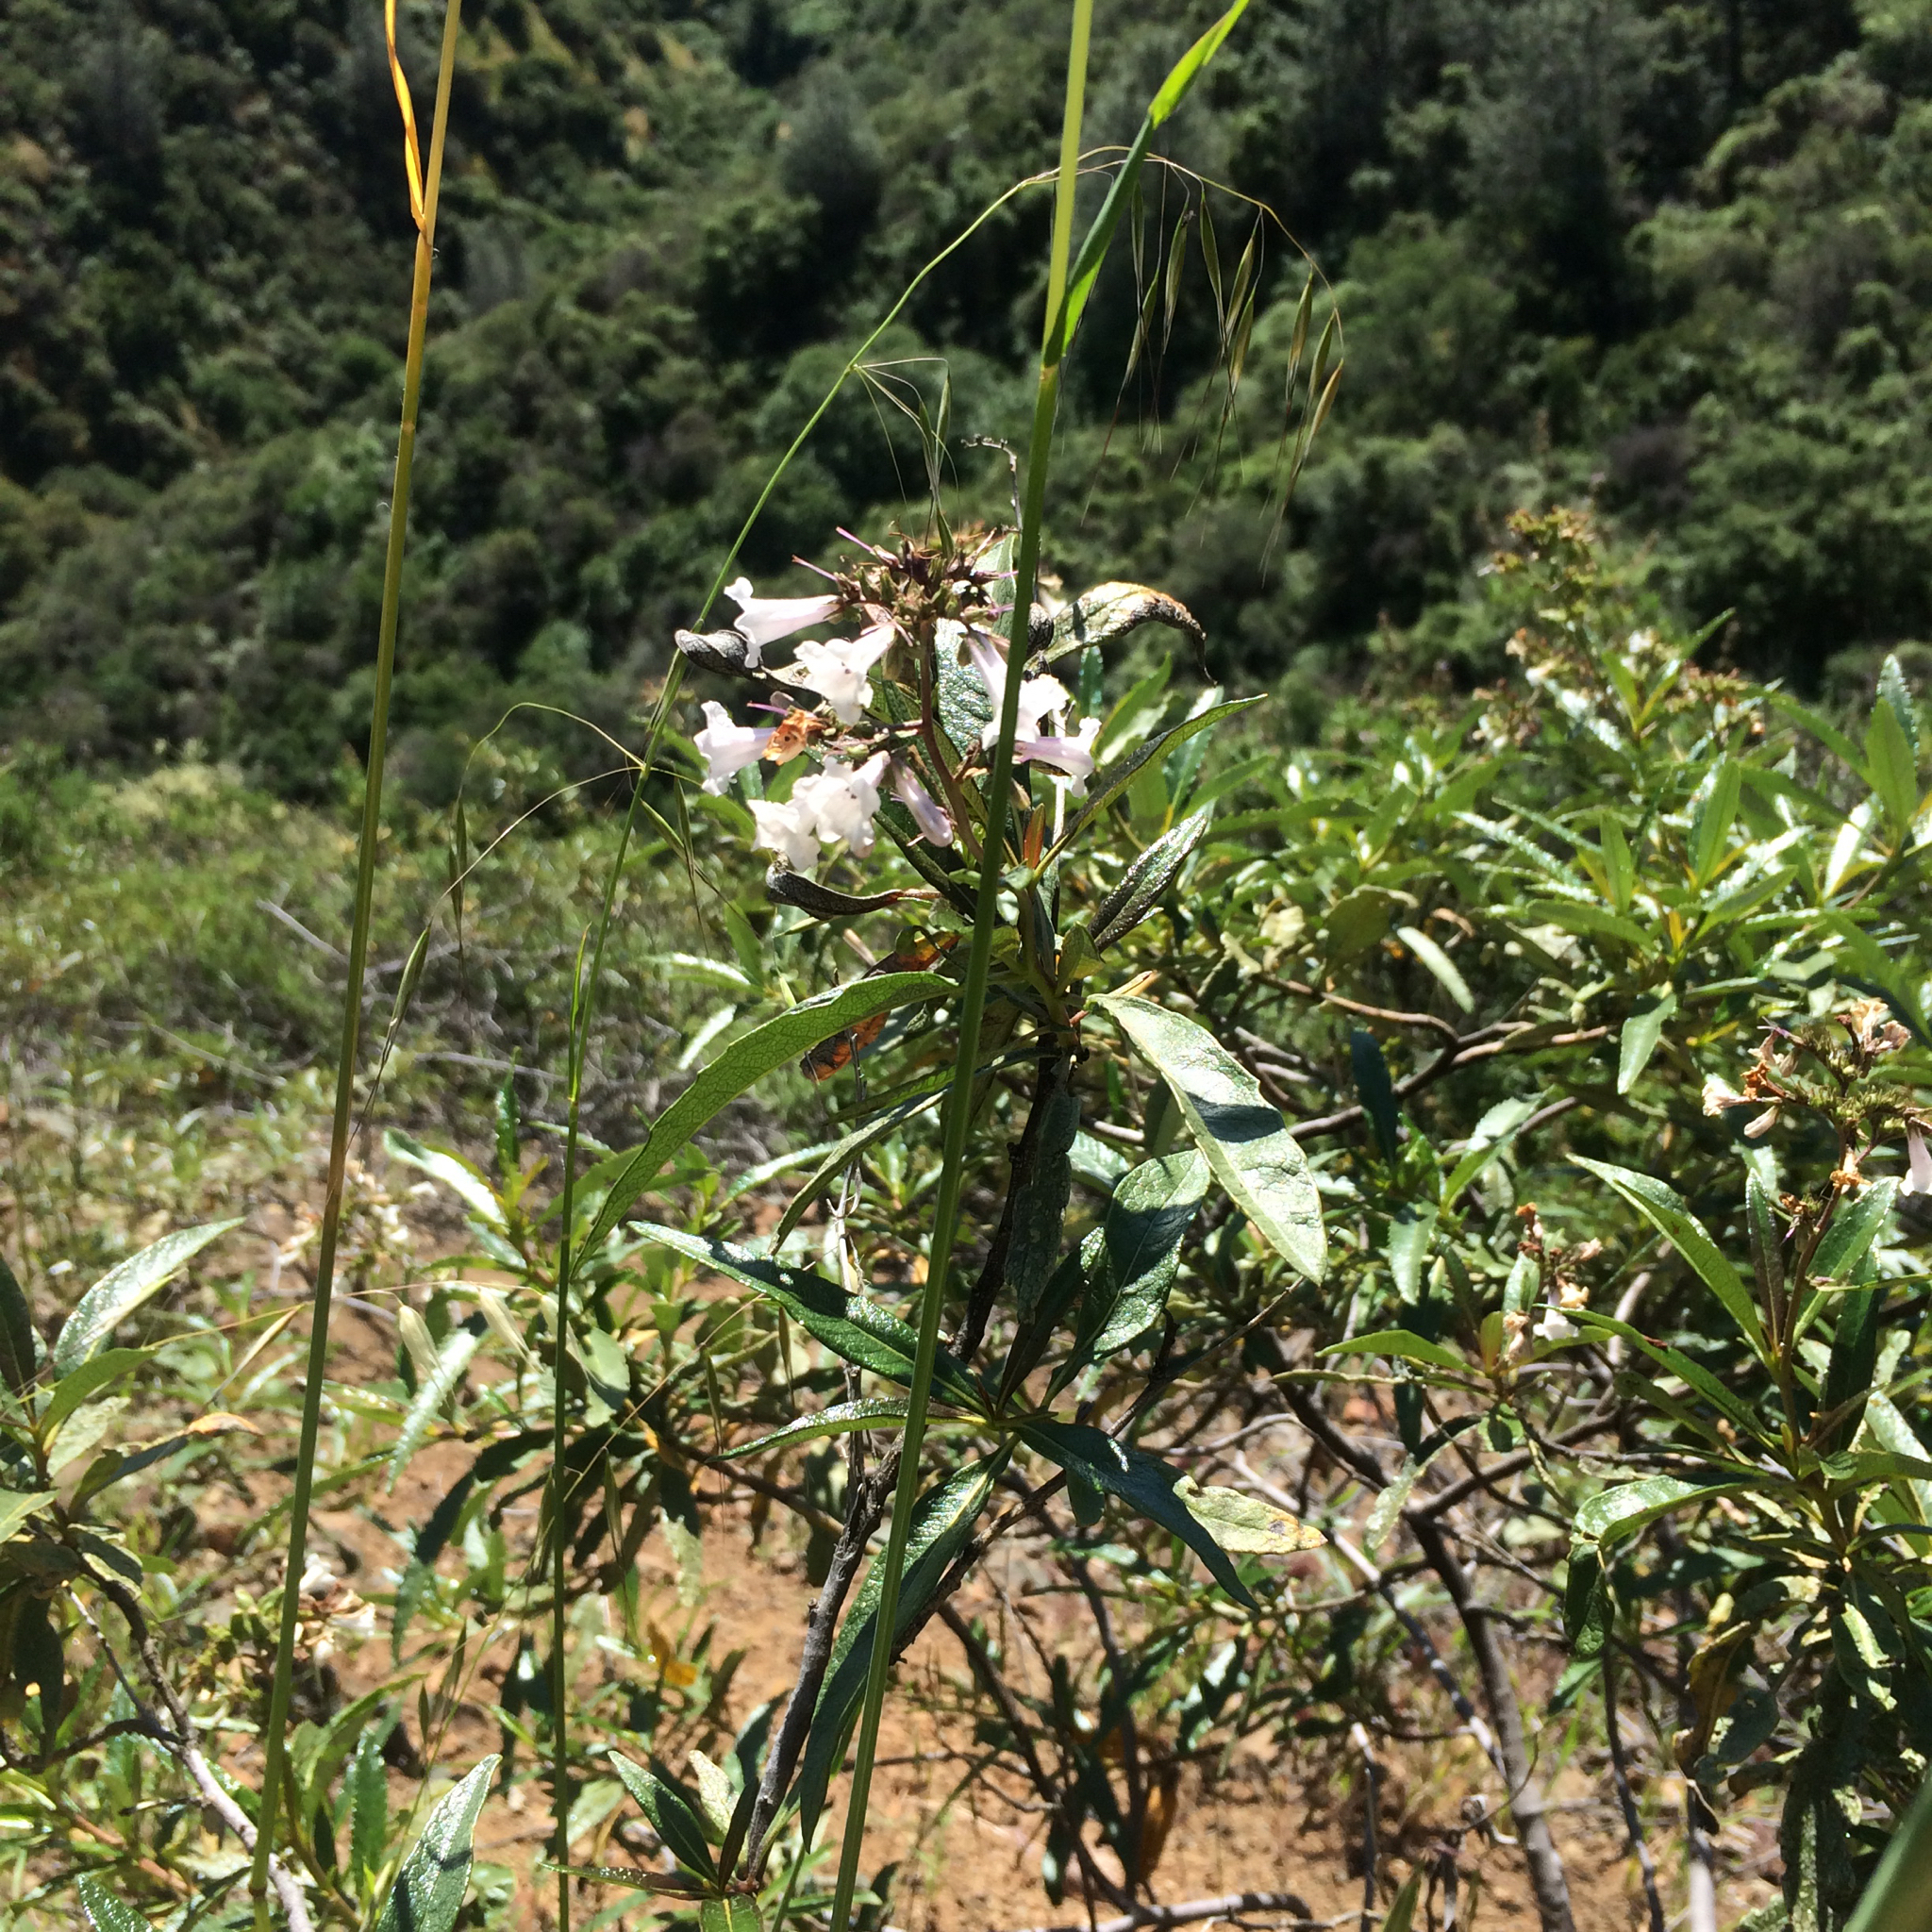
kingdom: Plantae
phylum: Tracheophyta
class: Magnoliopsida
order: Boraginales
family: Namaceae
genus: Eriodictyon
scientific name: Eriodictyon californicum
